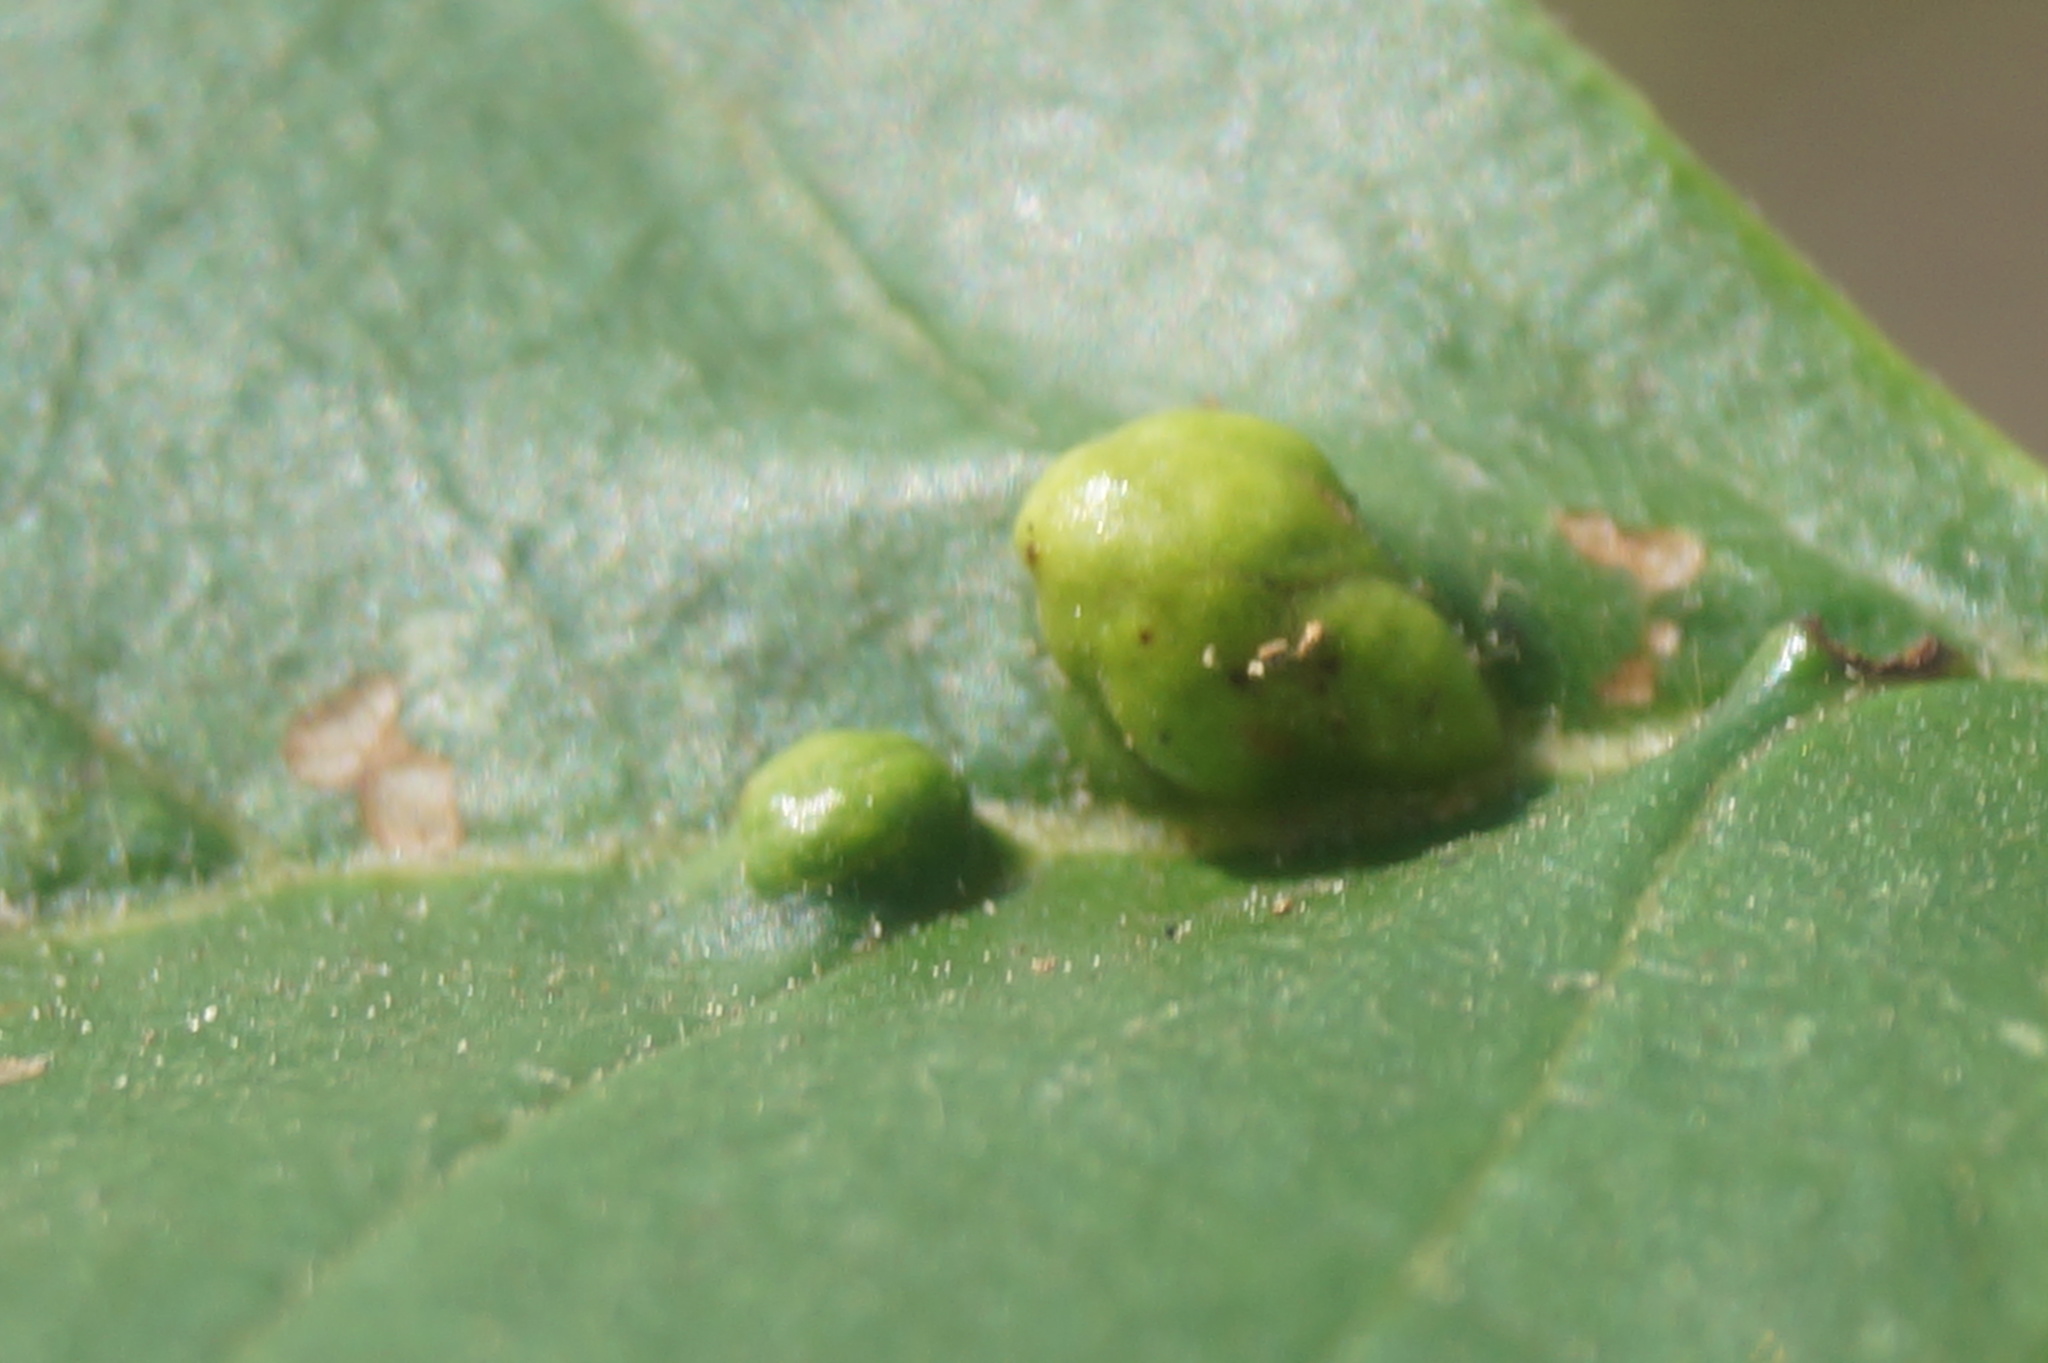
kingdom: Animalia
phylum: Arthropoda
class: Arachnida
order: Trombidiformes
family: Eriophyidae
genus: Eriophyes
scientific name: Eriophyes inangulis
